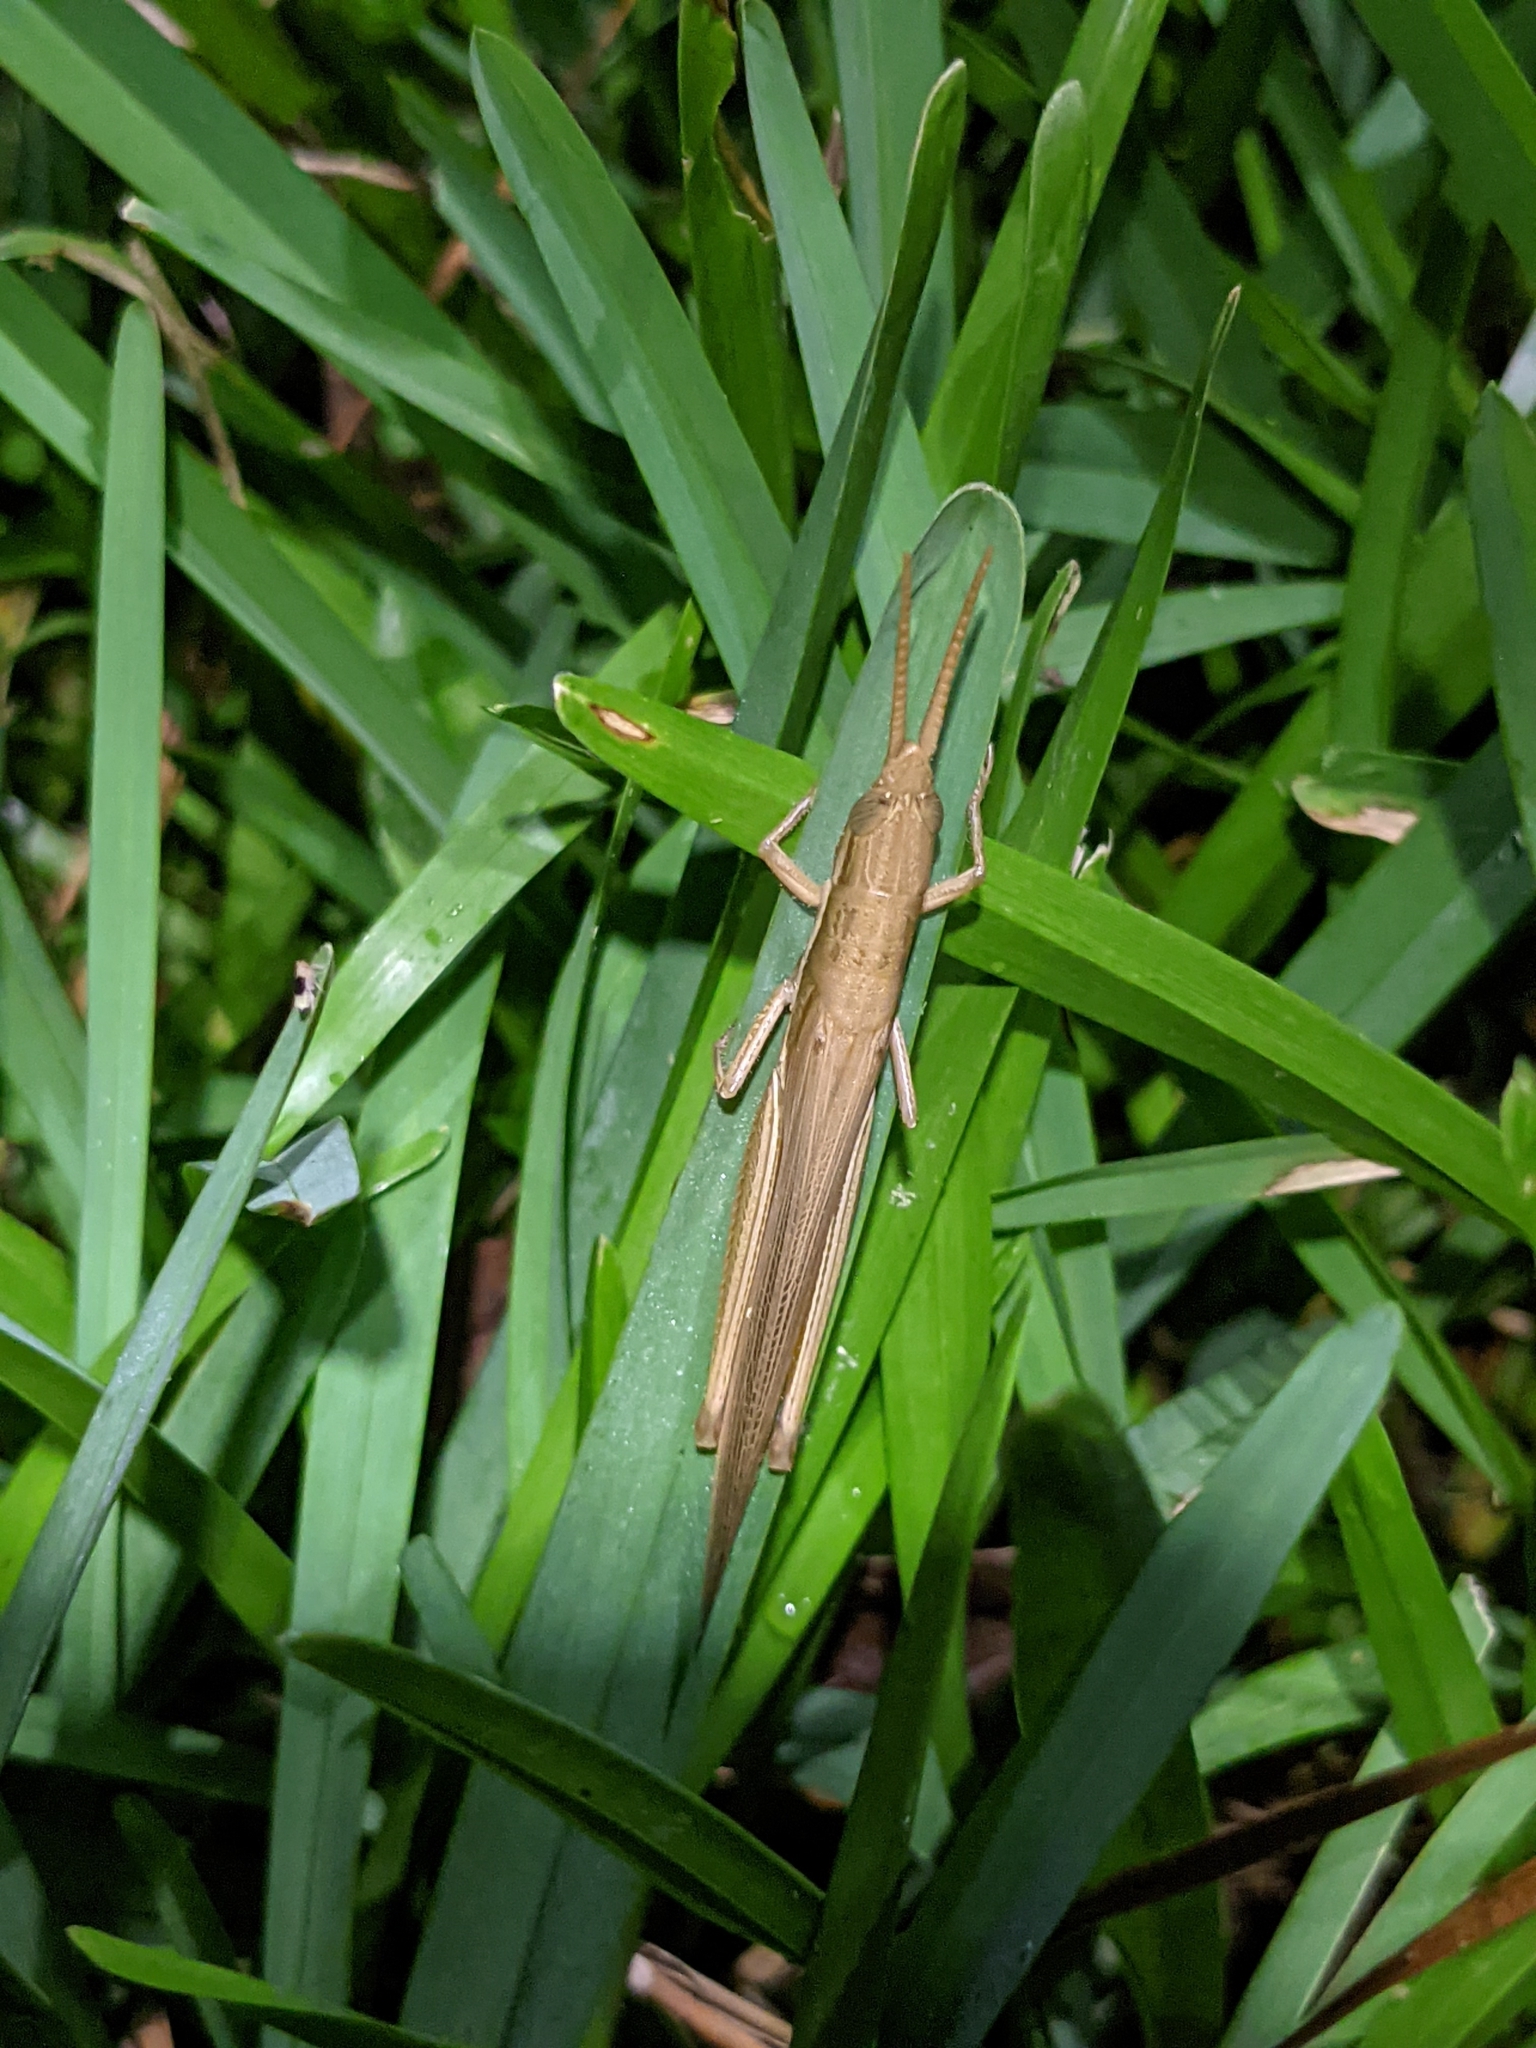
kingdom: Animalia
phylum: Arthropoda
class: Insecta
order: Orthoptera
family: Acrididae
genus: Leptysma
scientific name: Leptysma marginicollis
